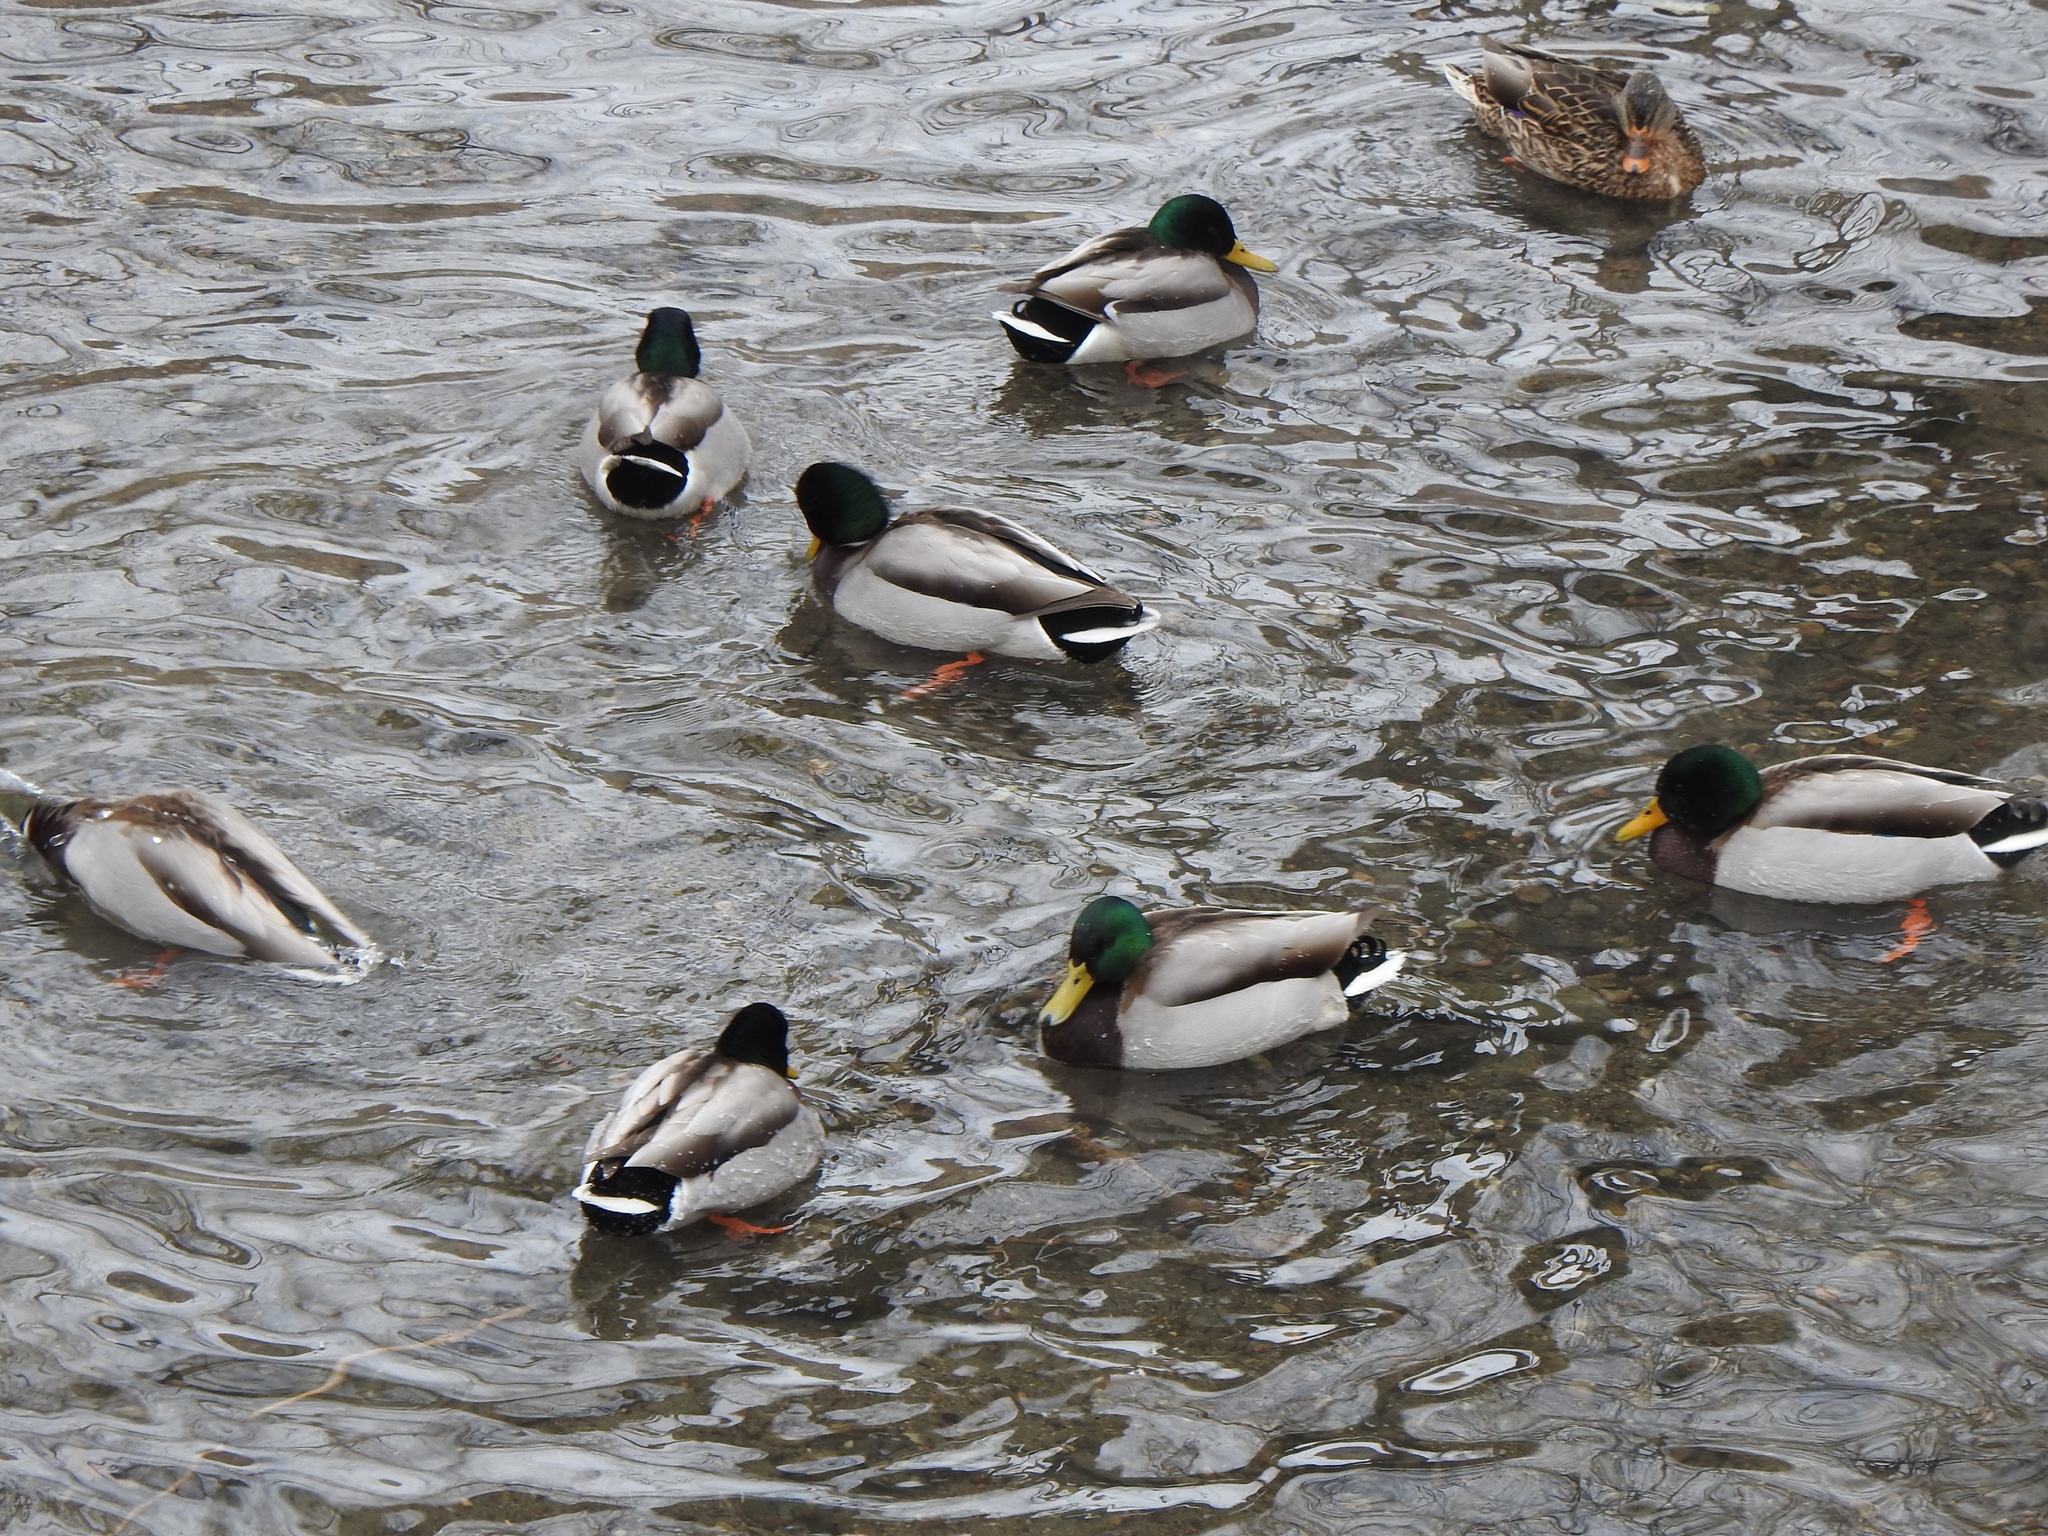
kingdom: Animalia
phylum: Chordata
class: Aves
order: Anseriformes
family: Anatidae
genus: Anas
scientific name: Anas platyrhynchos
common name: Mallard
